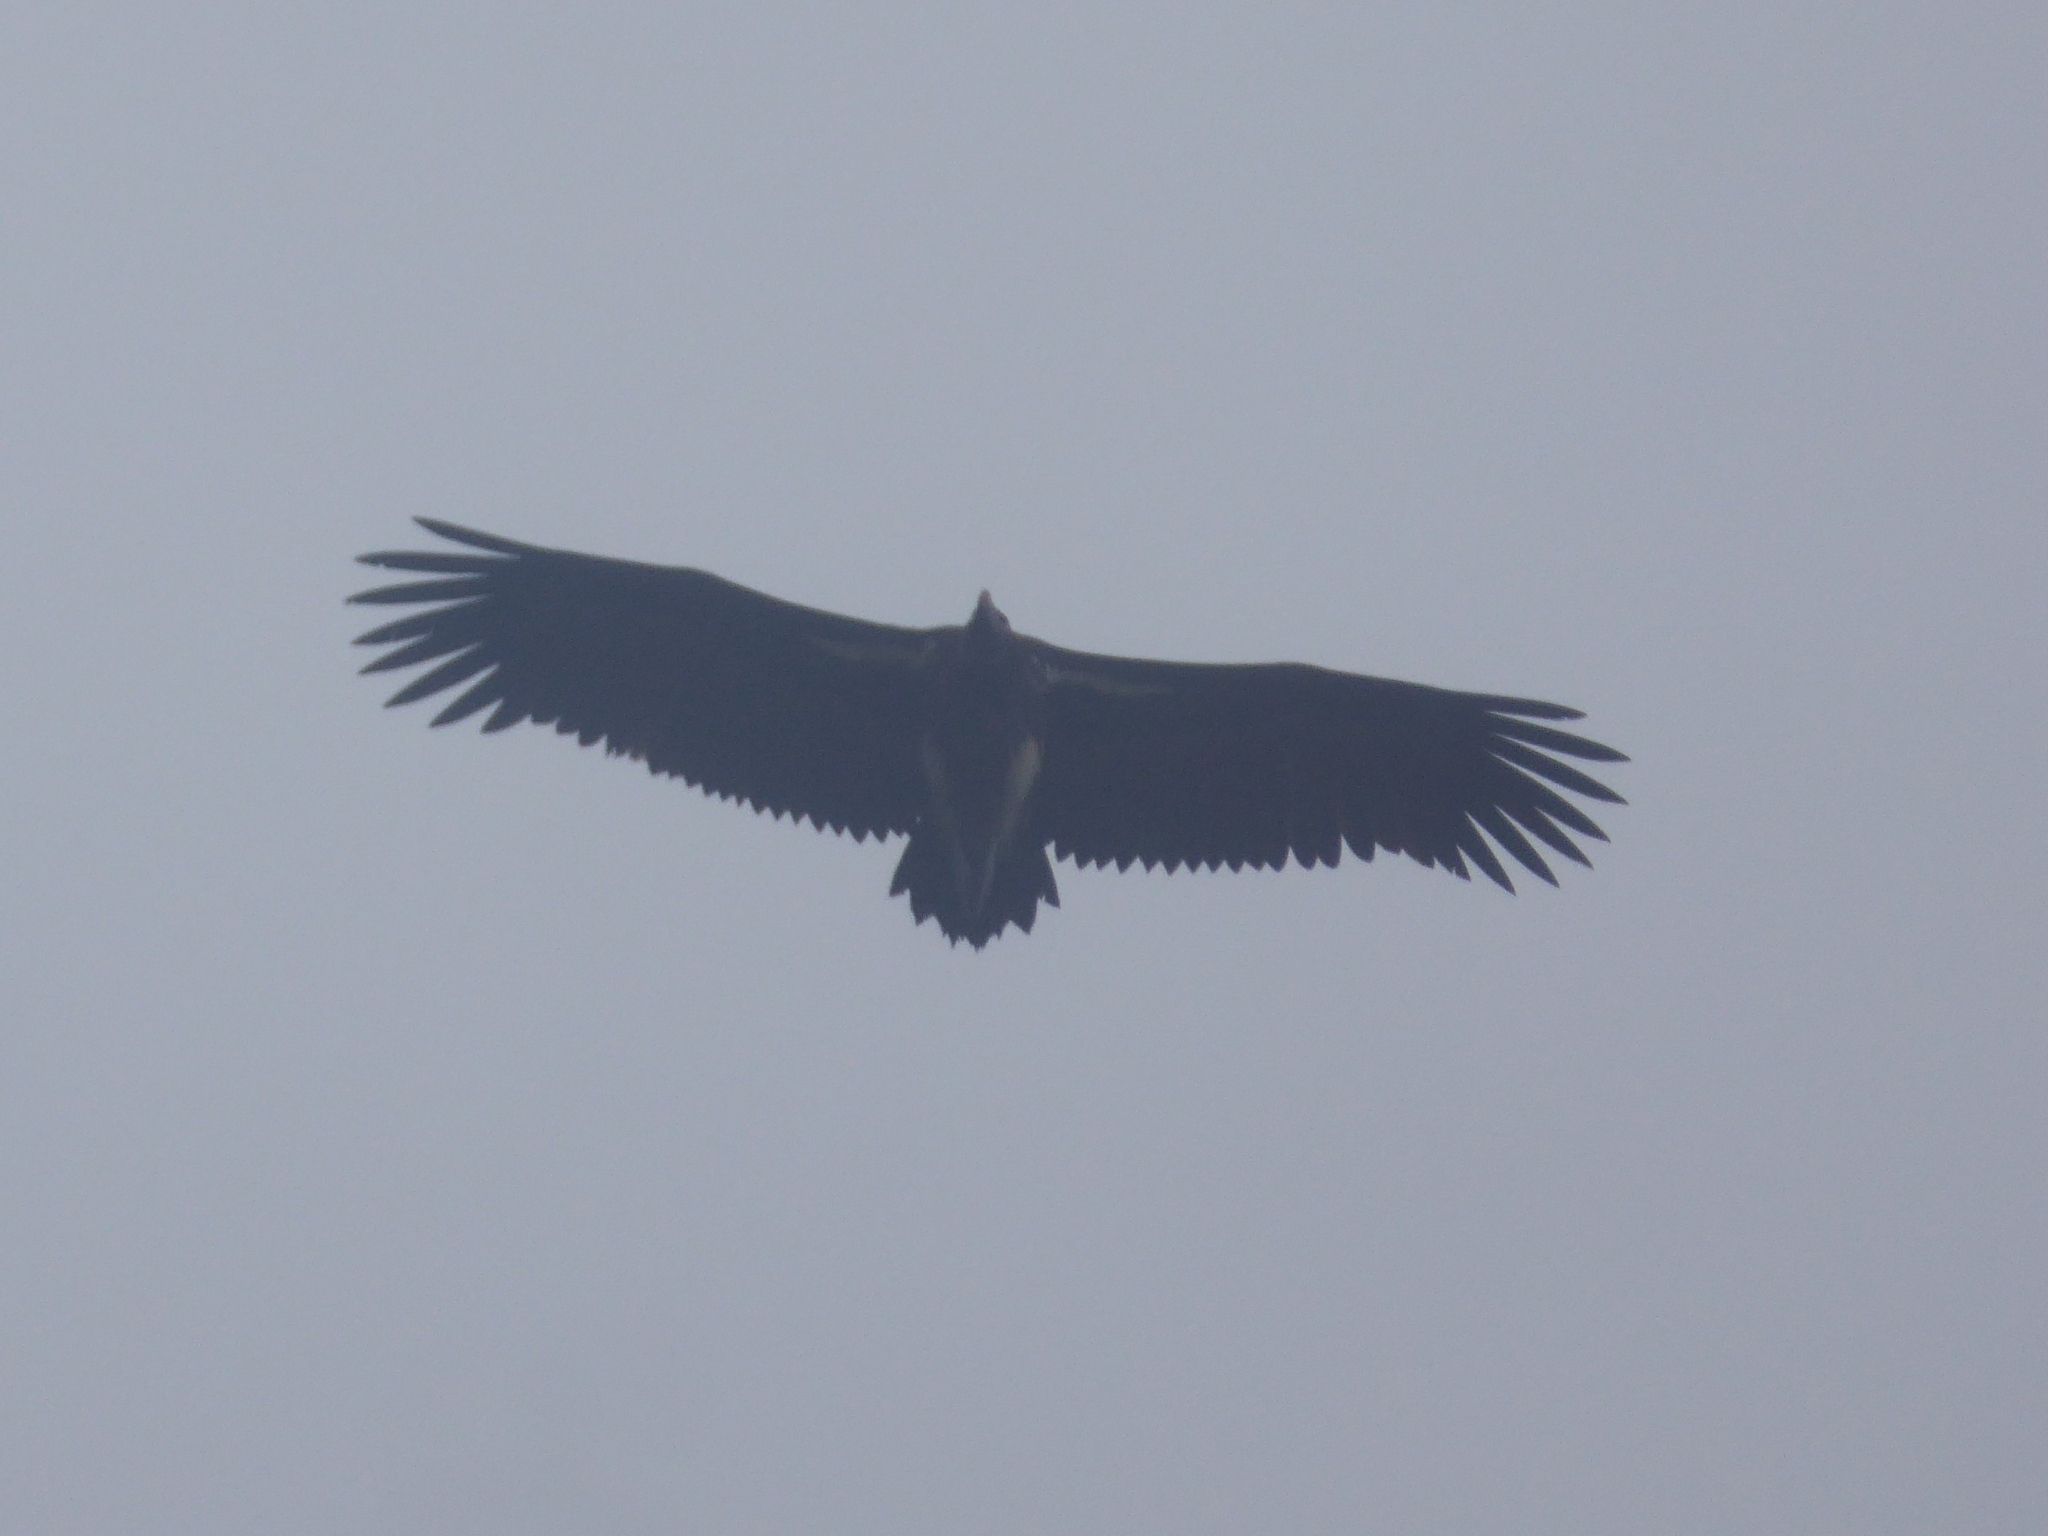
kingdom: Animalia
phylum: Chordata
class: Aves
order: Accipitriformes
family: Accipitridae
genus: Torgos
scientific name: Torgos tracheliotos
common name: Lappet-faced vulture
